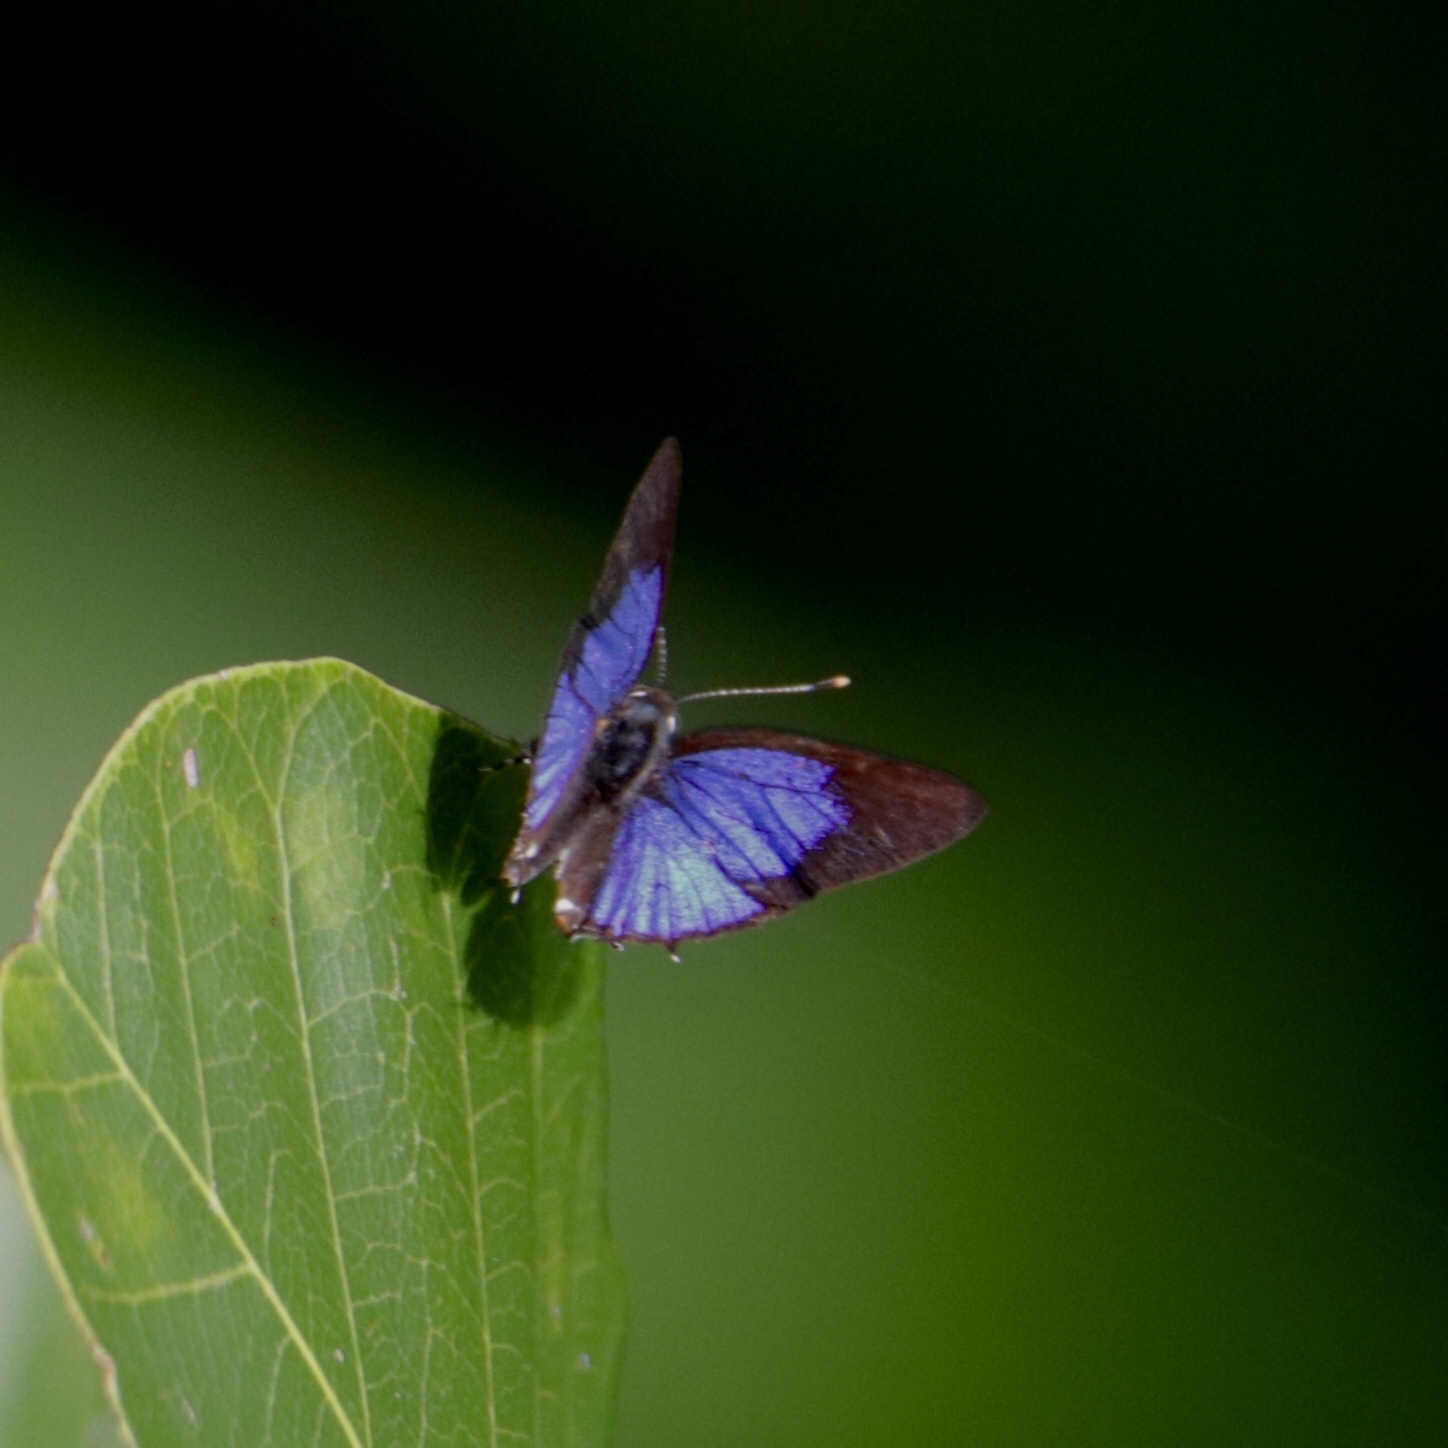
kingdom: Animalia
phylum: Arthropoda
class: Insecta
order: Lepidoptera
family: Lycaenidae
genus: Arawacus
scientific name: Arawacus ellida
